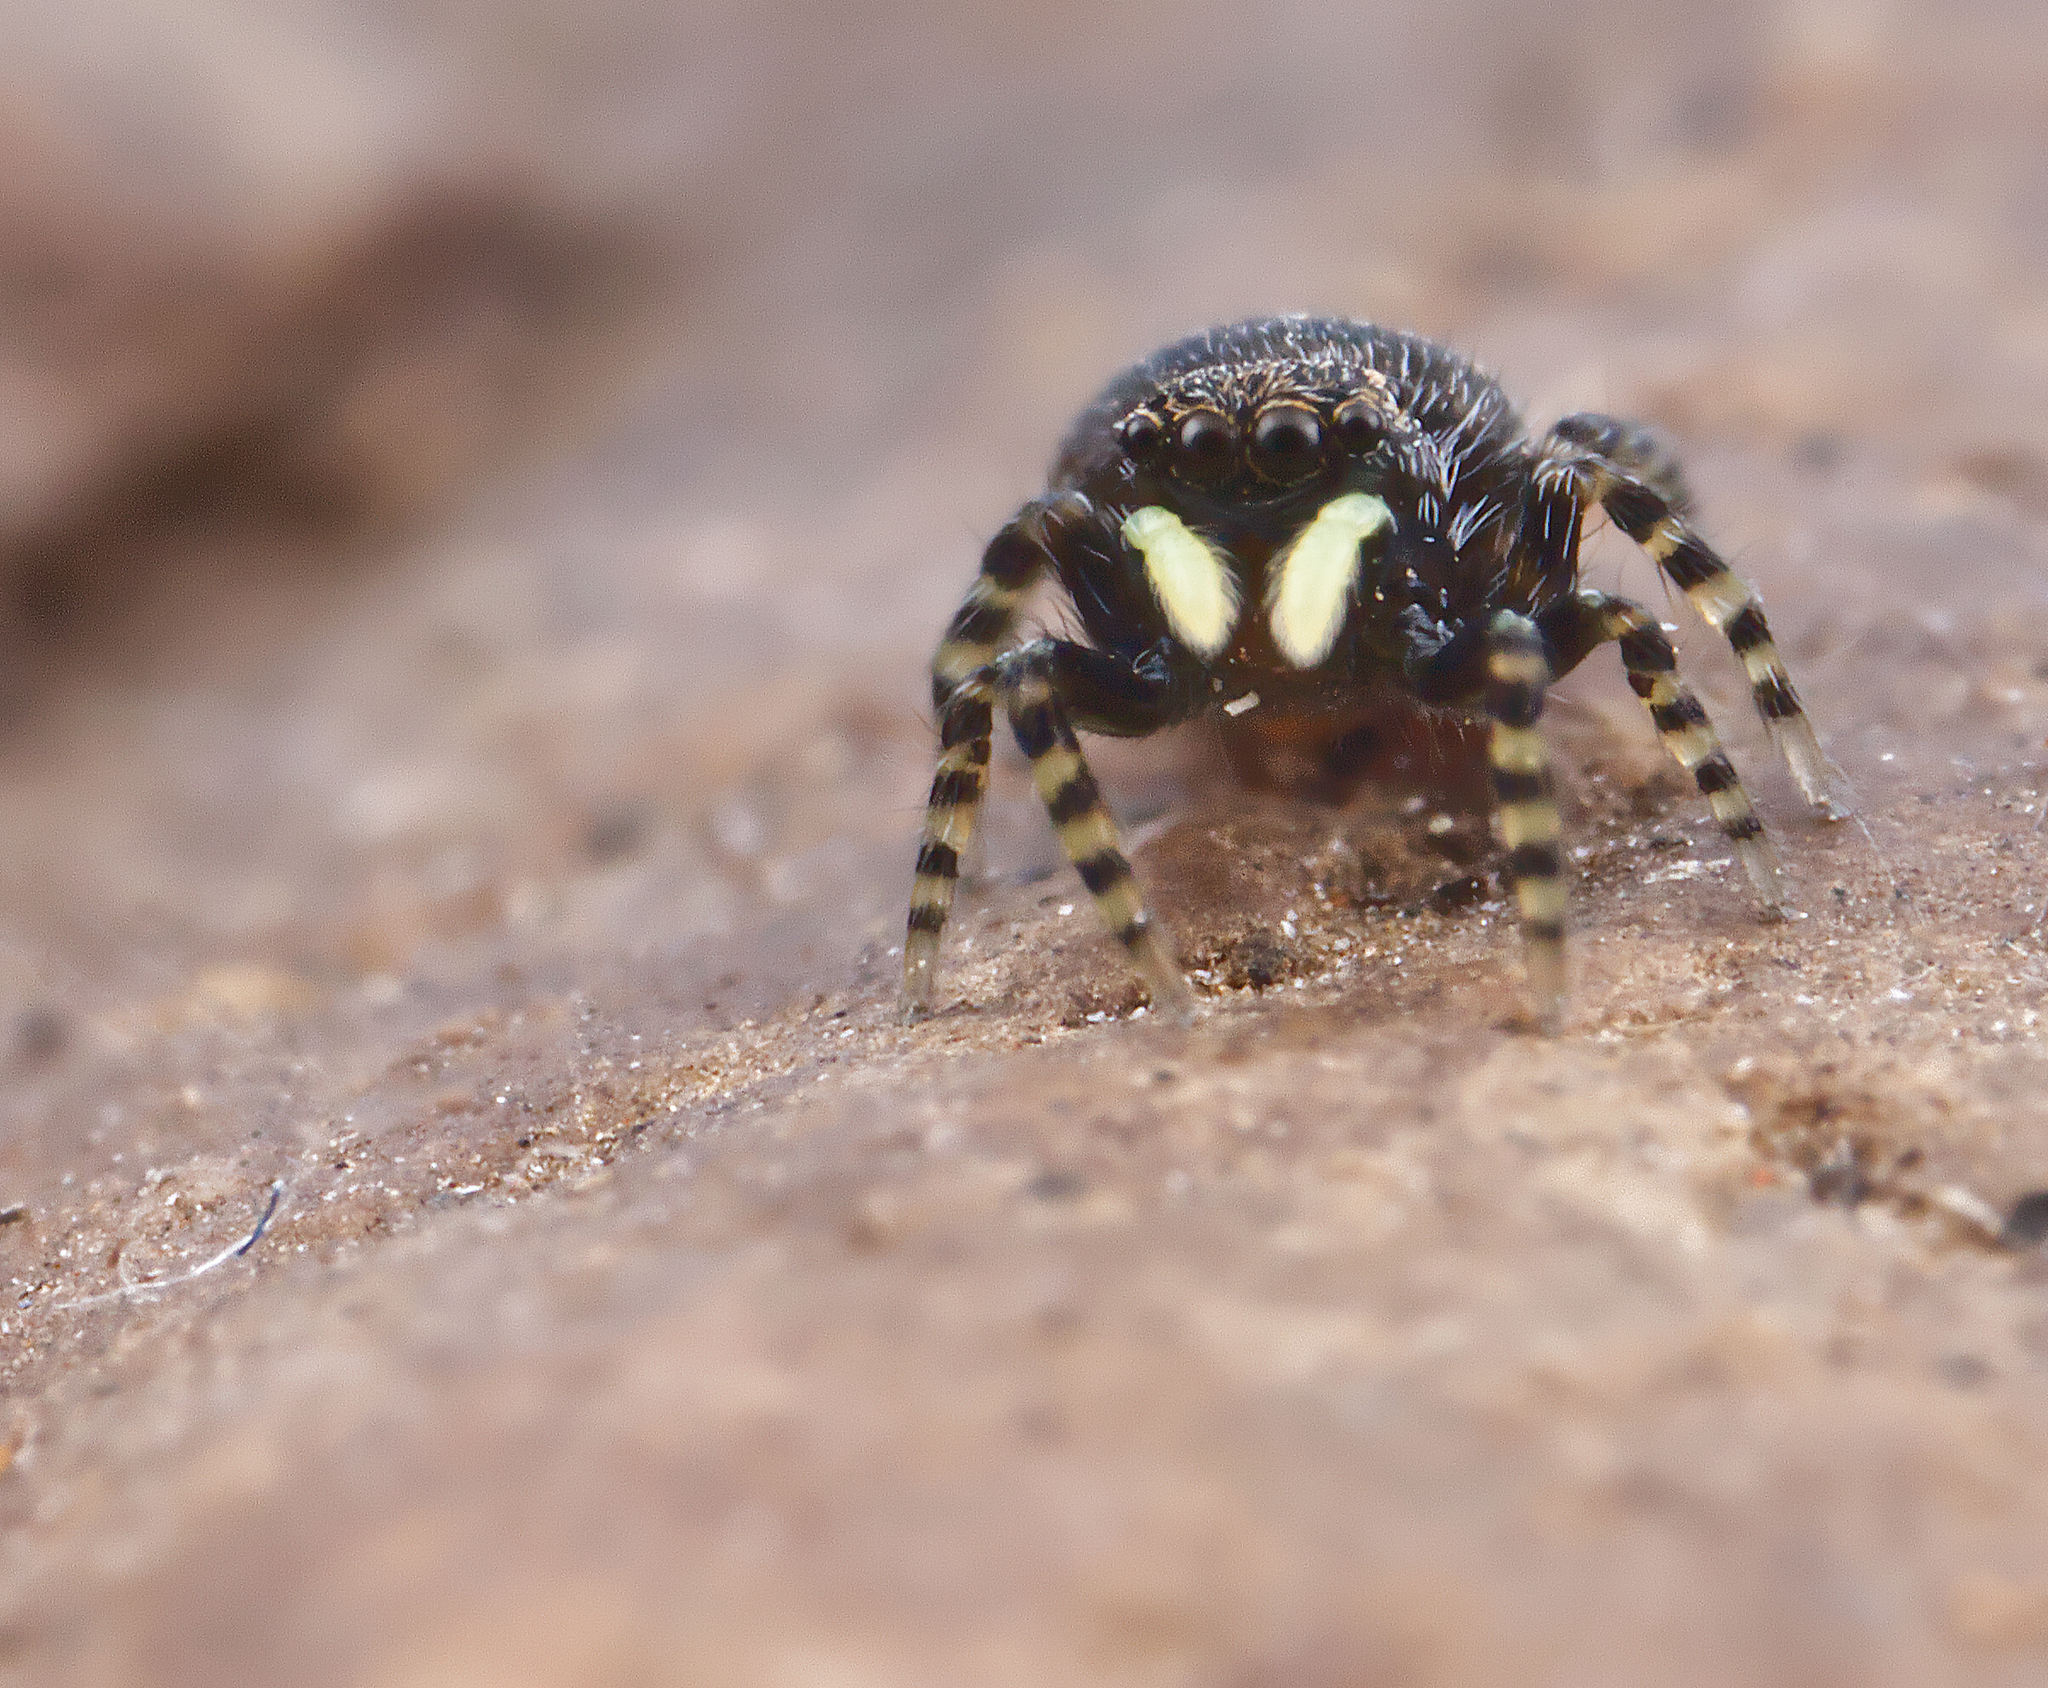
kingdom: Animalia
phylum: Arthropoda
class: Arachnida
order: Araneae
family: Salticidae
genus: Talavera
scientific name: Talavera minuta
